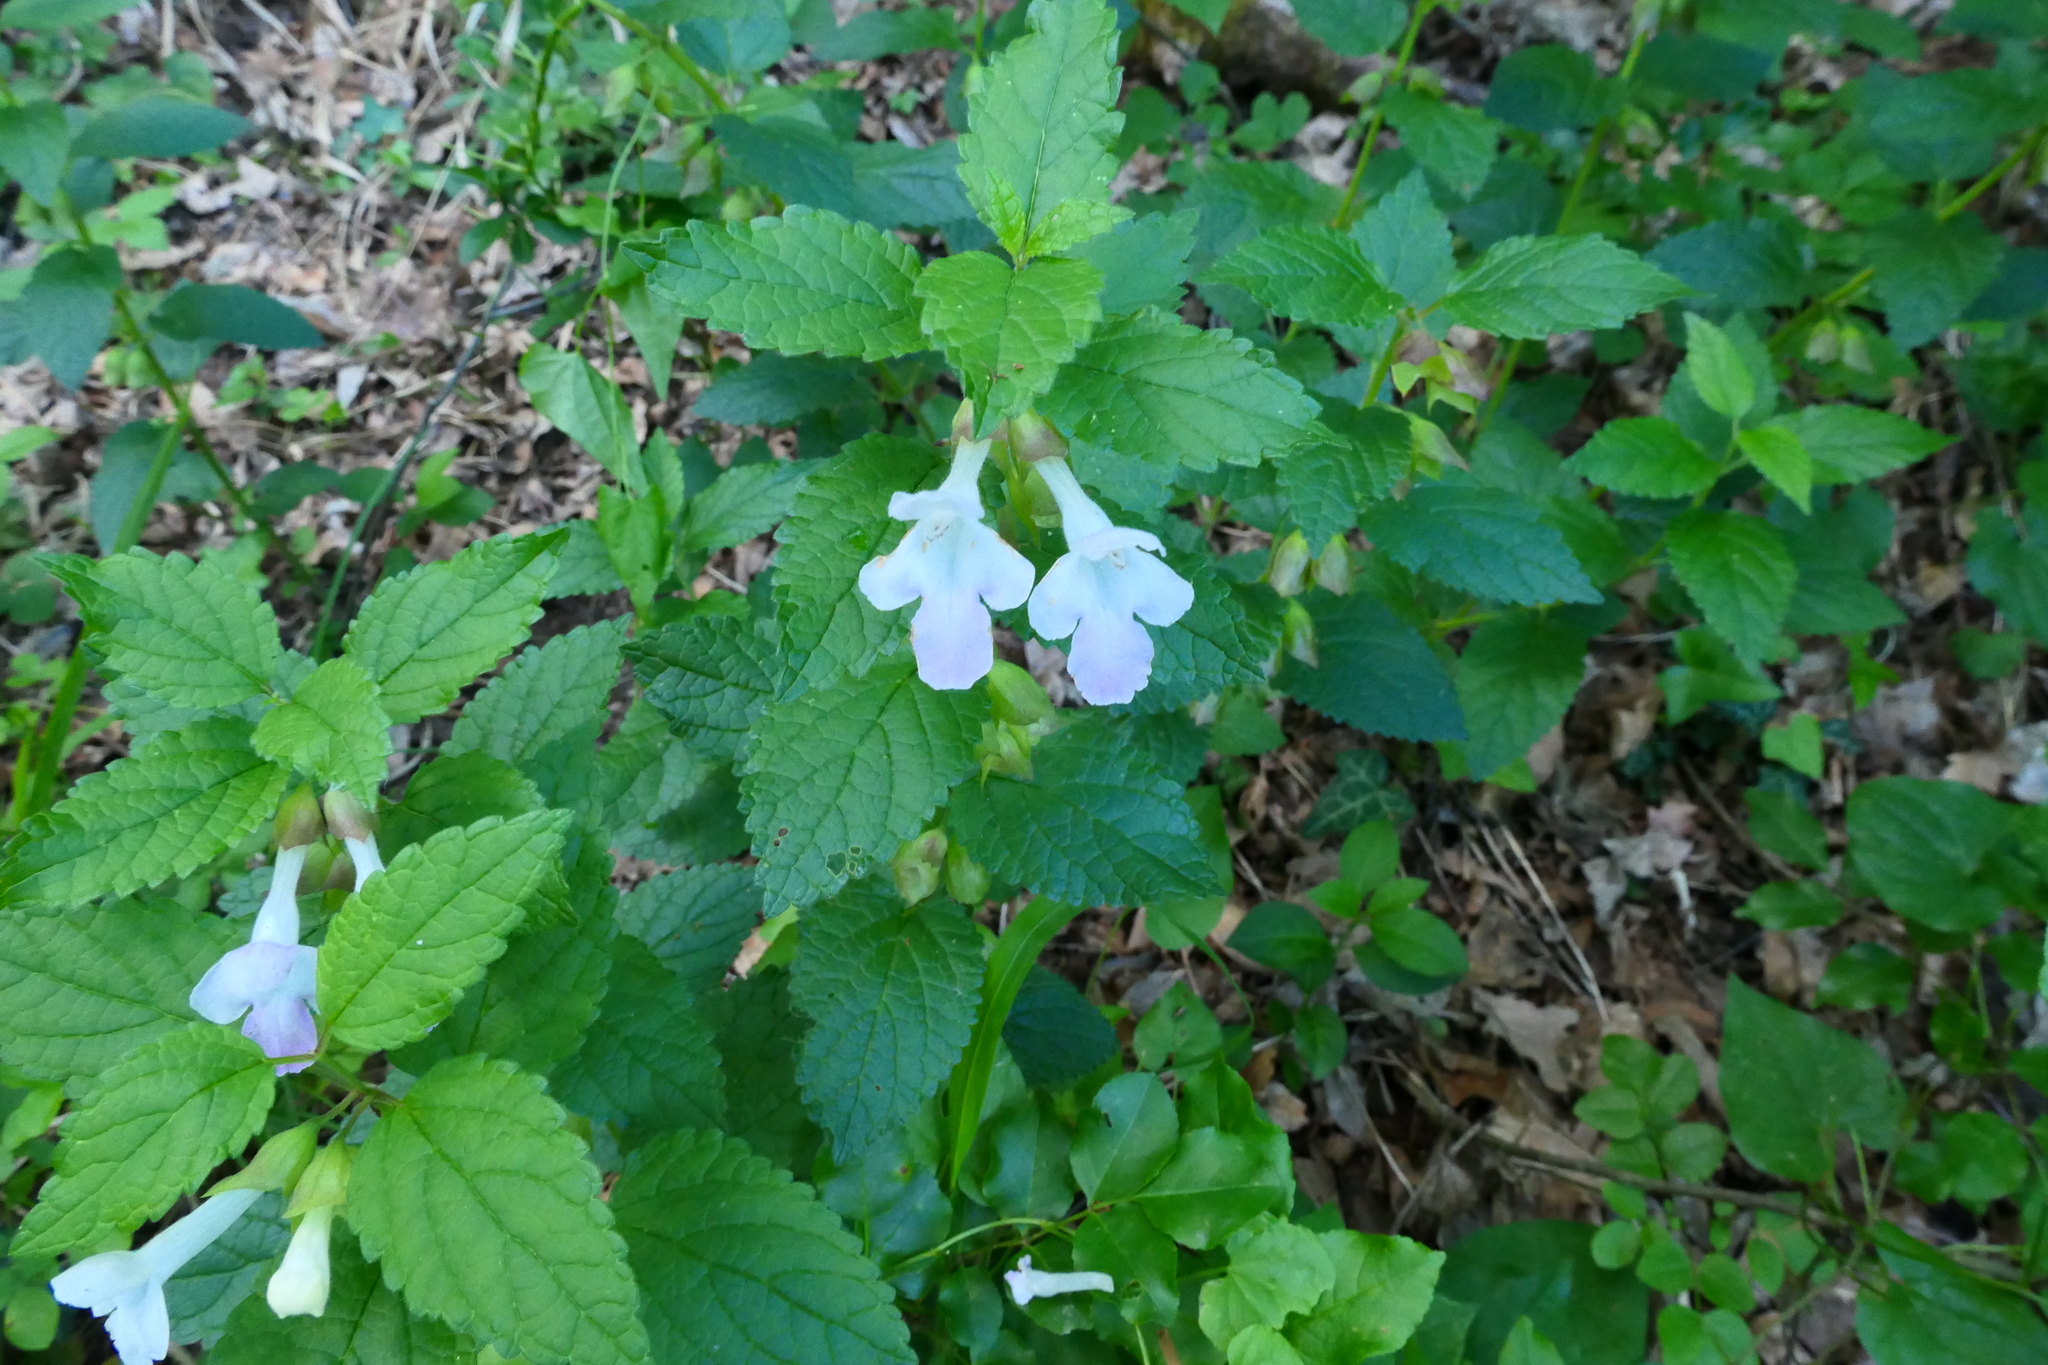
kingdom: Plantae
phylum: Tracheophyta
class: Magnoliopsida
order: Lamiales
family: Lamiaceae
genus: Melittis
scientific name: Melittis melissophyllum
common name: Bastard balm
